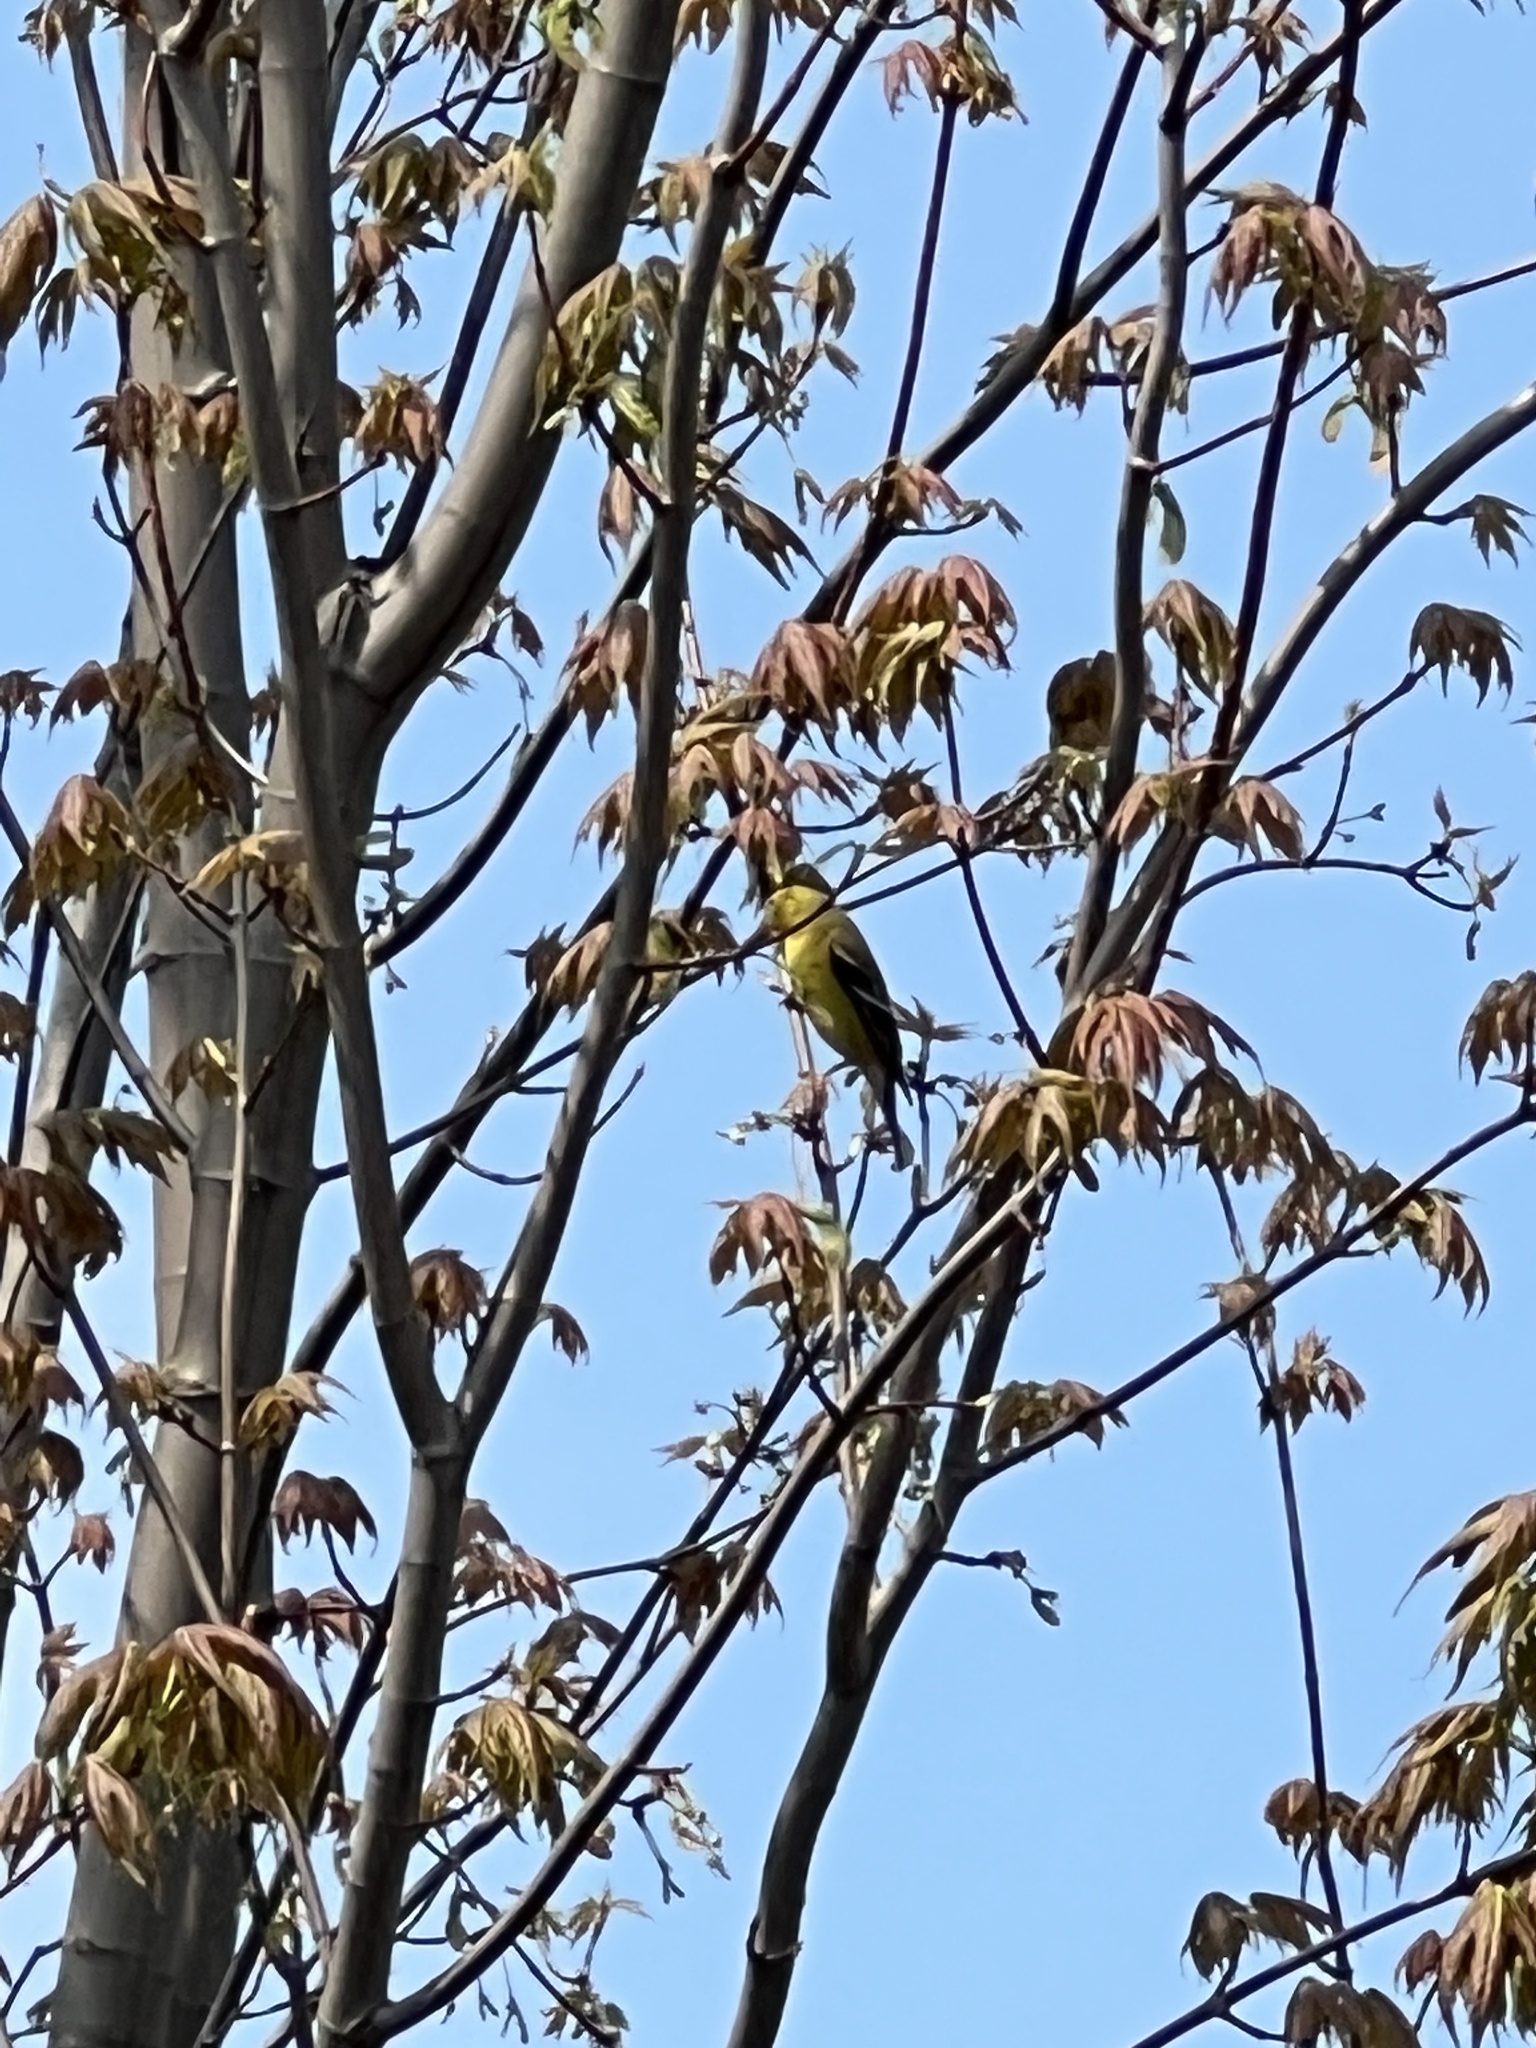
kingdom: Animalia
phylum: Chordata
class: Aves
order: Passeriformes
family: Fringillidae
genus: Spinus
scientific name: Spinus tristis
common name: American goldfinch
